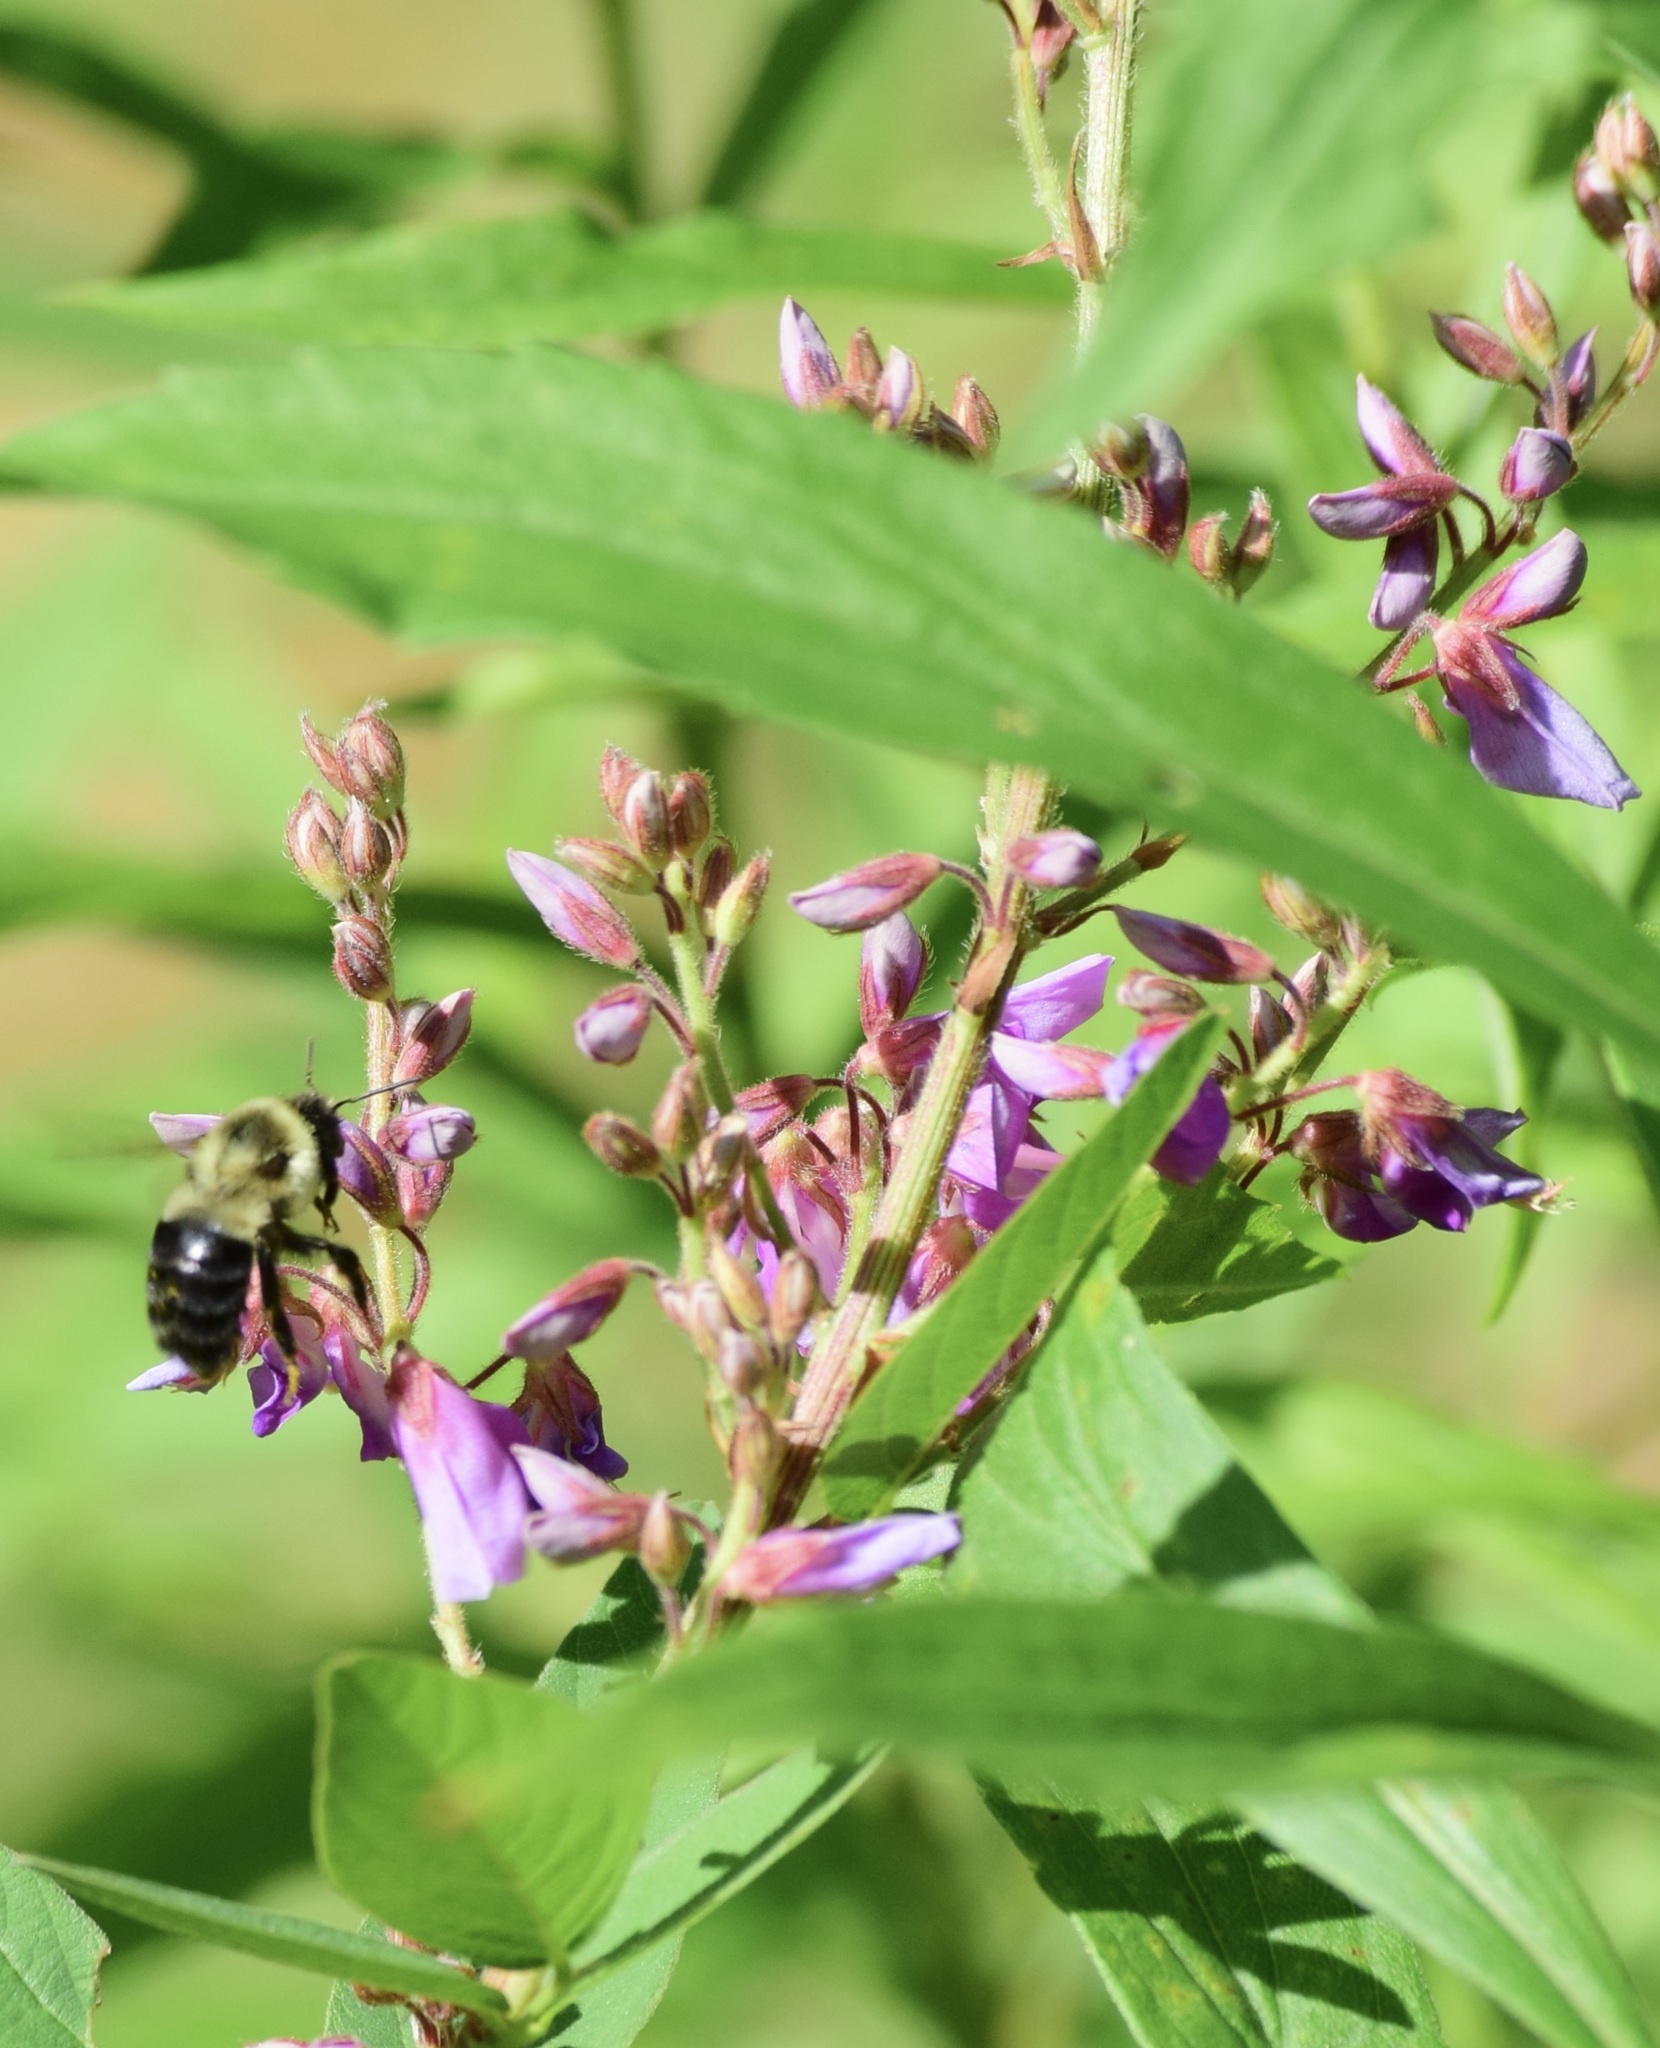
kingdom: Animalia
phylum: Arthropoda
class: Insecta
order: Hymenoptera
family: Apidae
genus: Bombus
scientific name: Bombus impatiens
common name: Common eastern bumble bee
